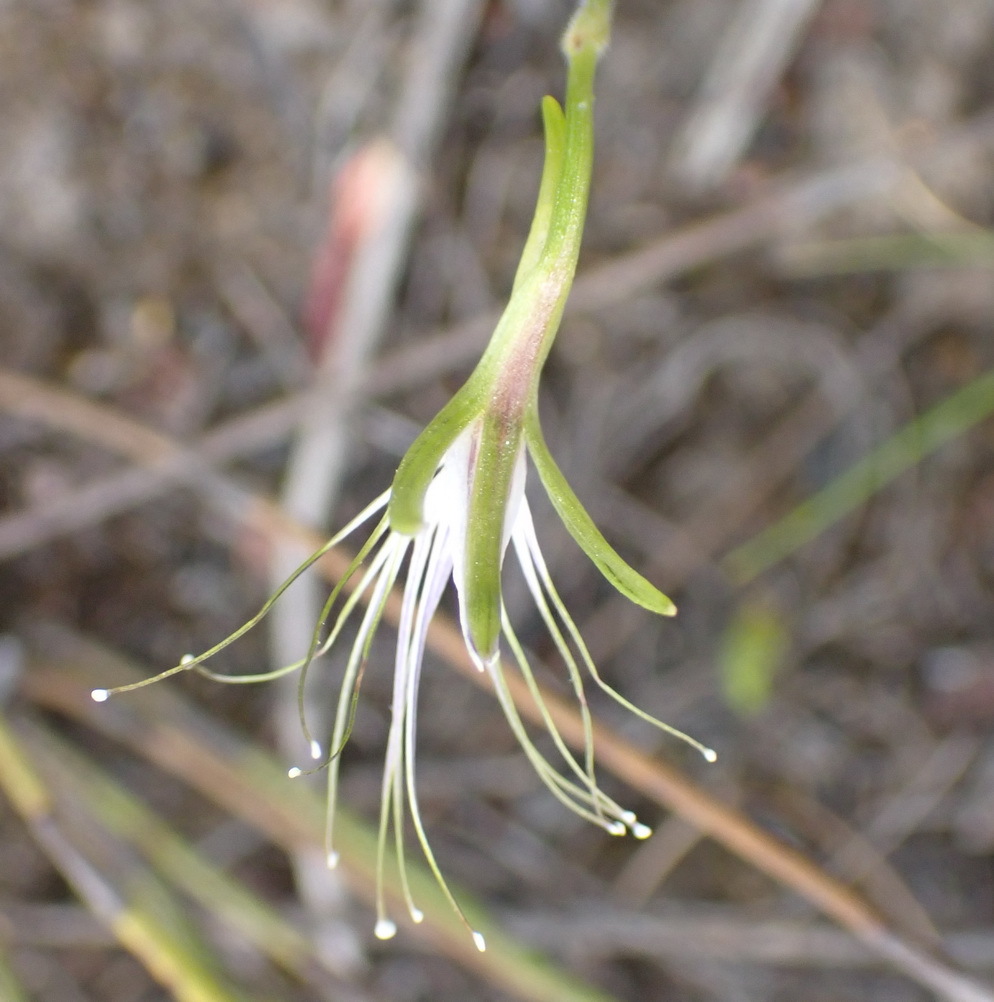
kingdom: Plantae
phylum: Tracheophyta
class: Liliopsida
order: Asparagales
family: Orchidaceae
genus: Holothrix
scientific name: Holothrix etheliae
